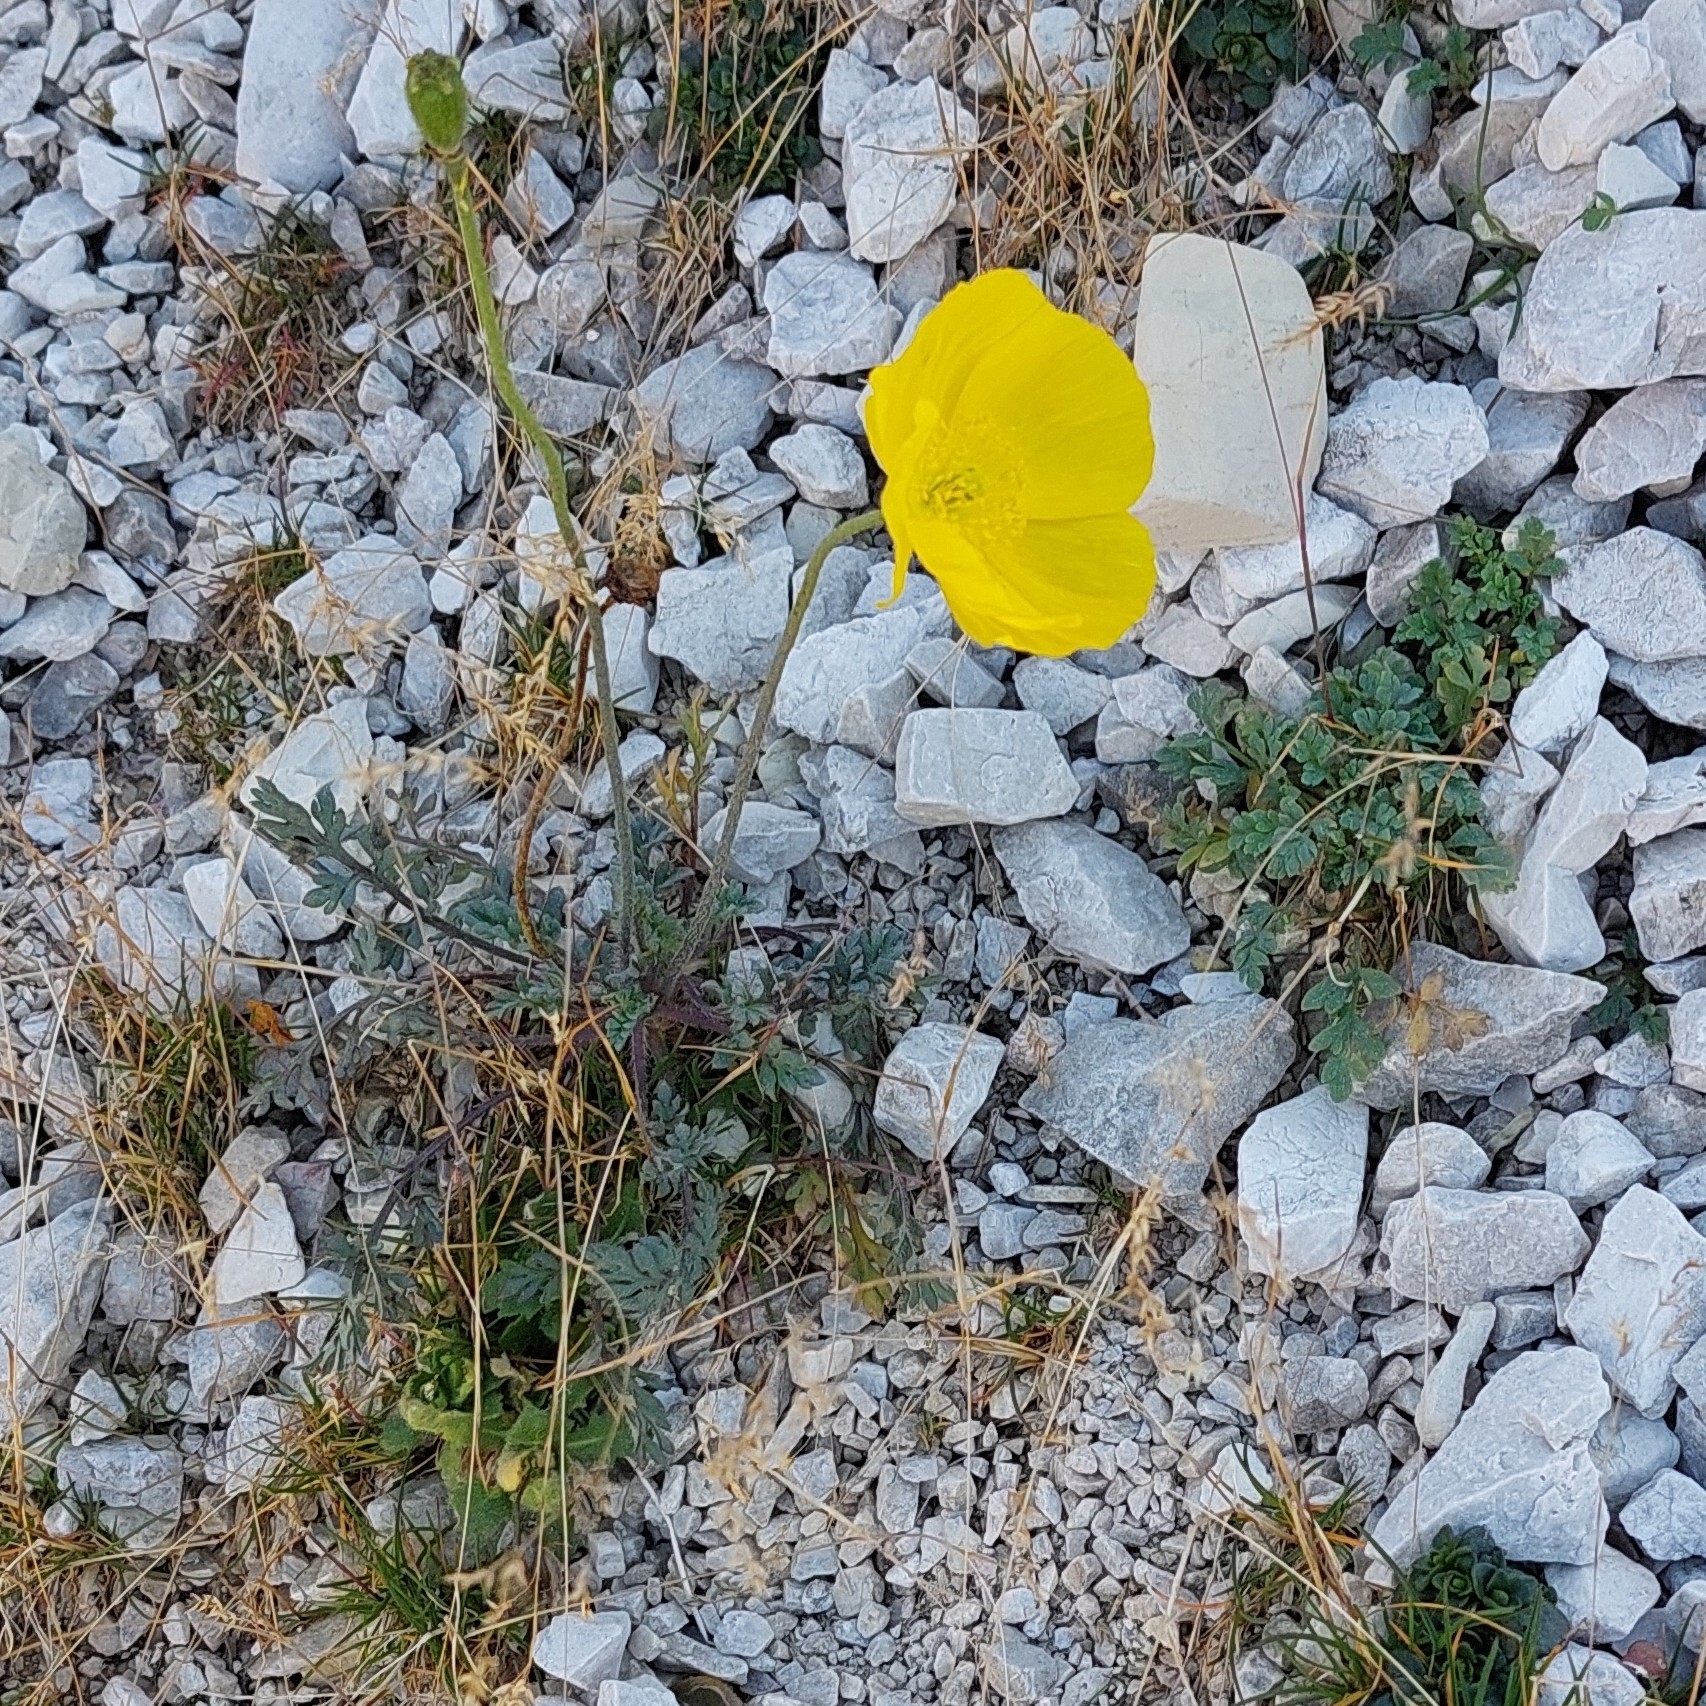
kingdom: Plantae
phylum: Tracheophyta
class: Magnoliopsida
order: Ranunculales
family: Papaveraceae
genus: Papaver
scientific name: Papaver alpinum
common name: Austrian poppy
